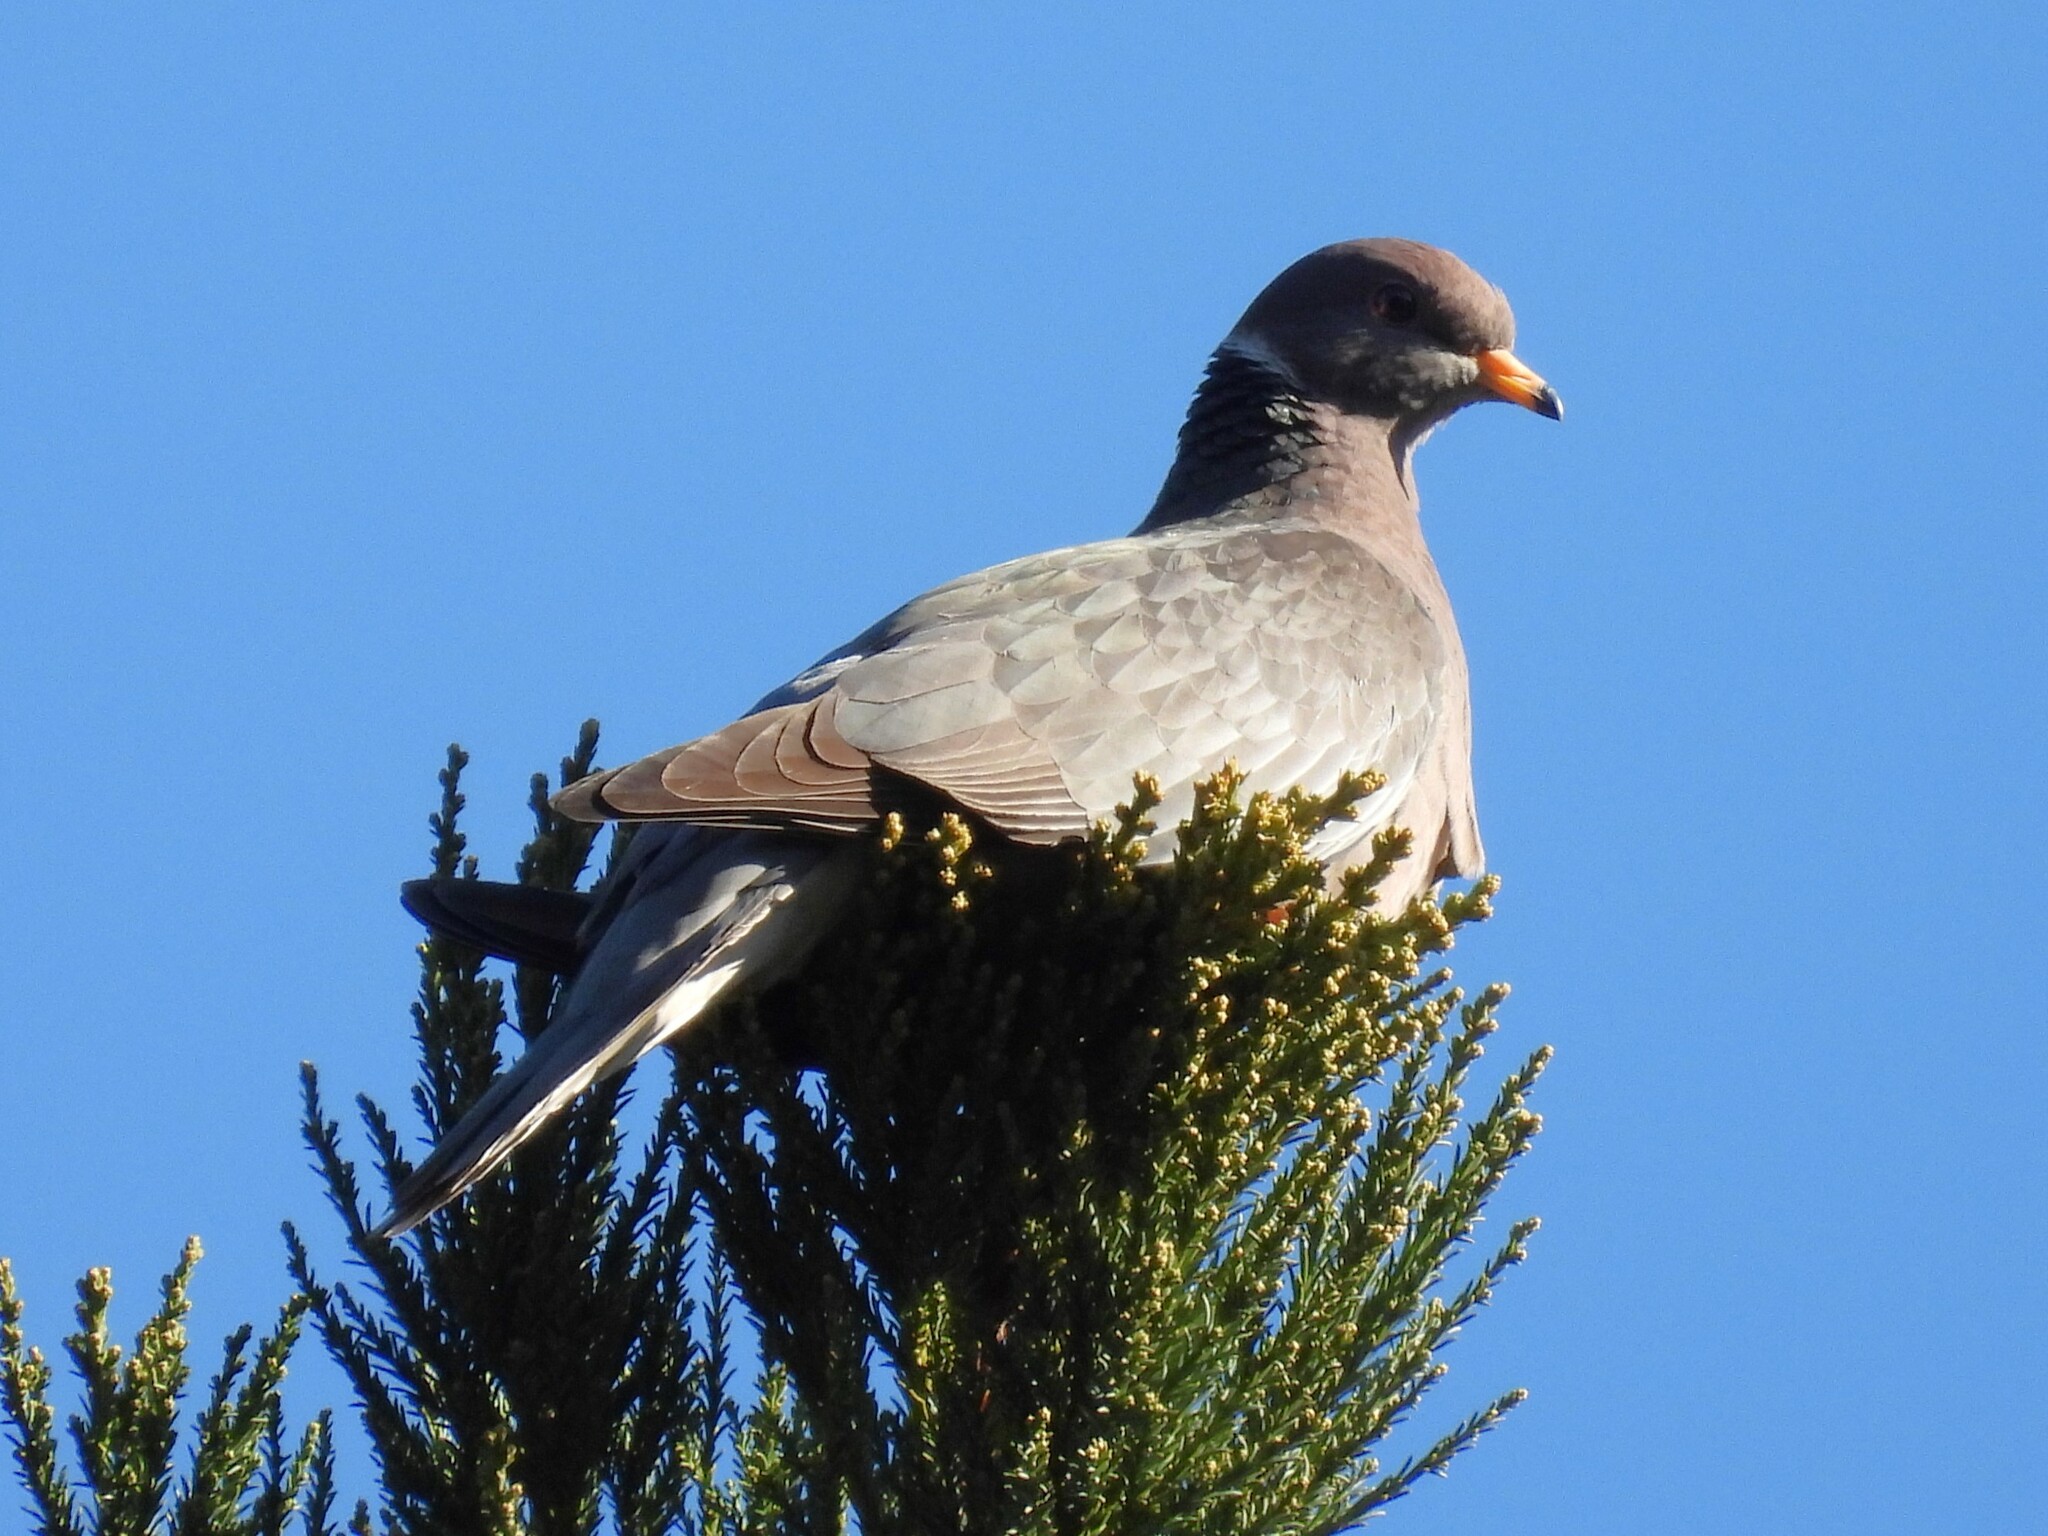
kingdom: Animalia
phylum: Chordata
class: Aves
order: Columbiformes
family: Columbidae
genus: Patagioenas
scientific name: Patagioenas fasciata
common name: Band-tailed pigeon
